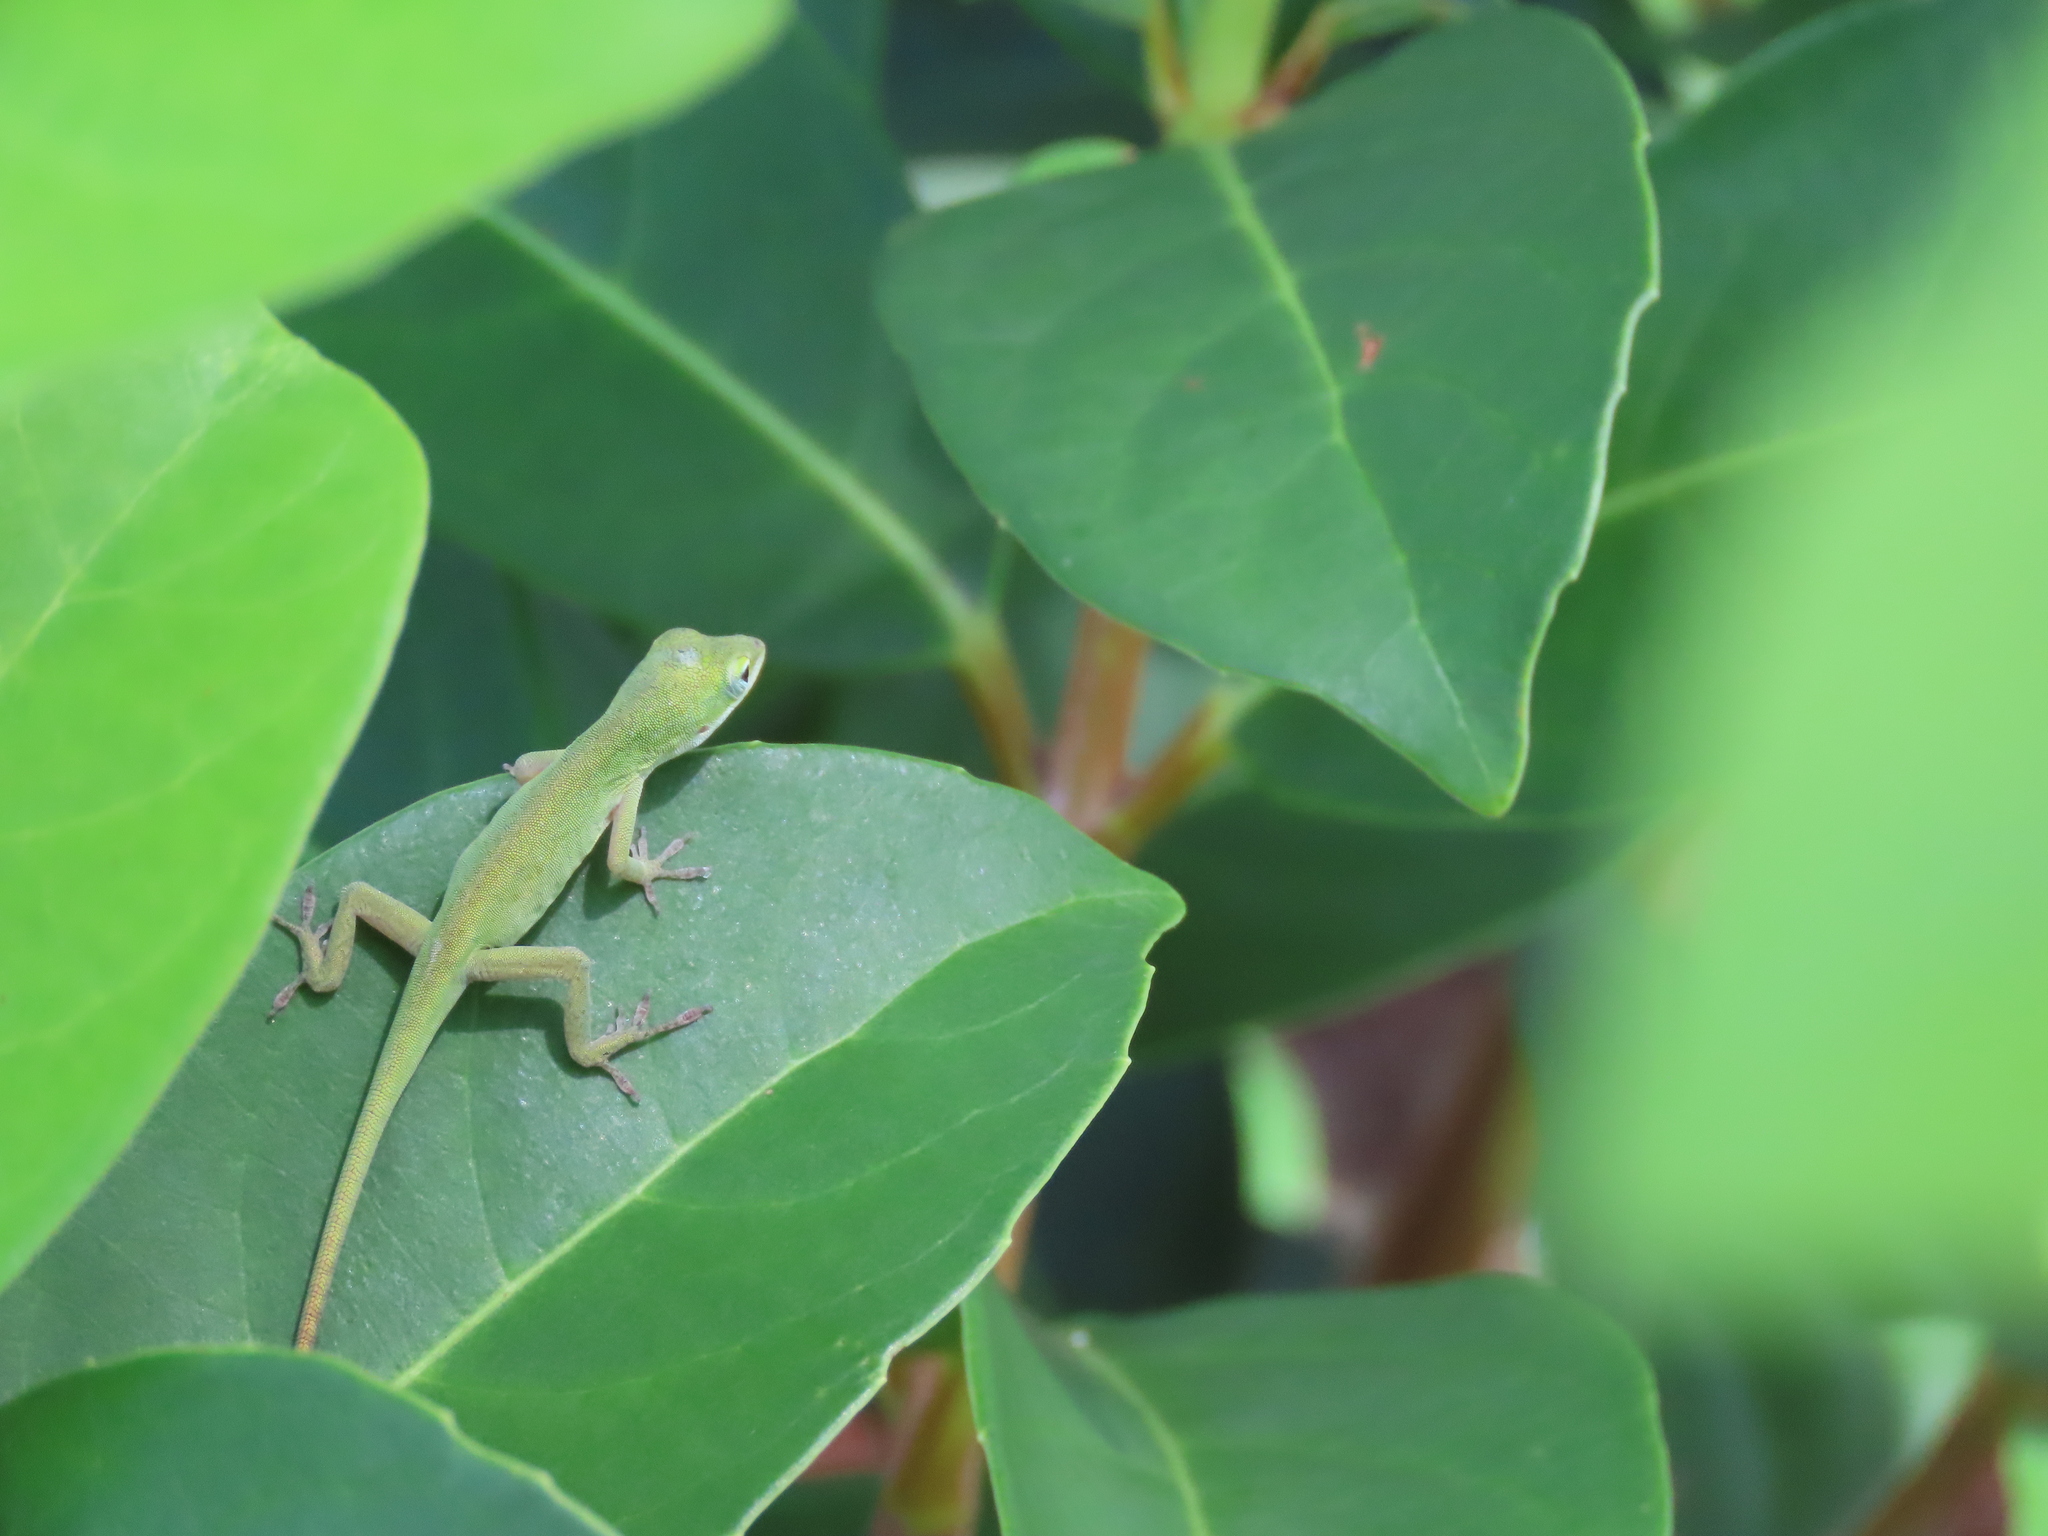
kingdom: Animalia
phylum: Chordata
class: Squamata
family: Dactyloidae
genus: Anolis
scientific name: Anolis carolinensis
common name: Green anole
